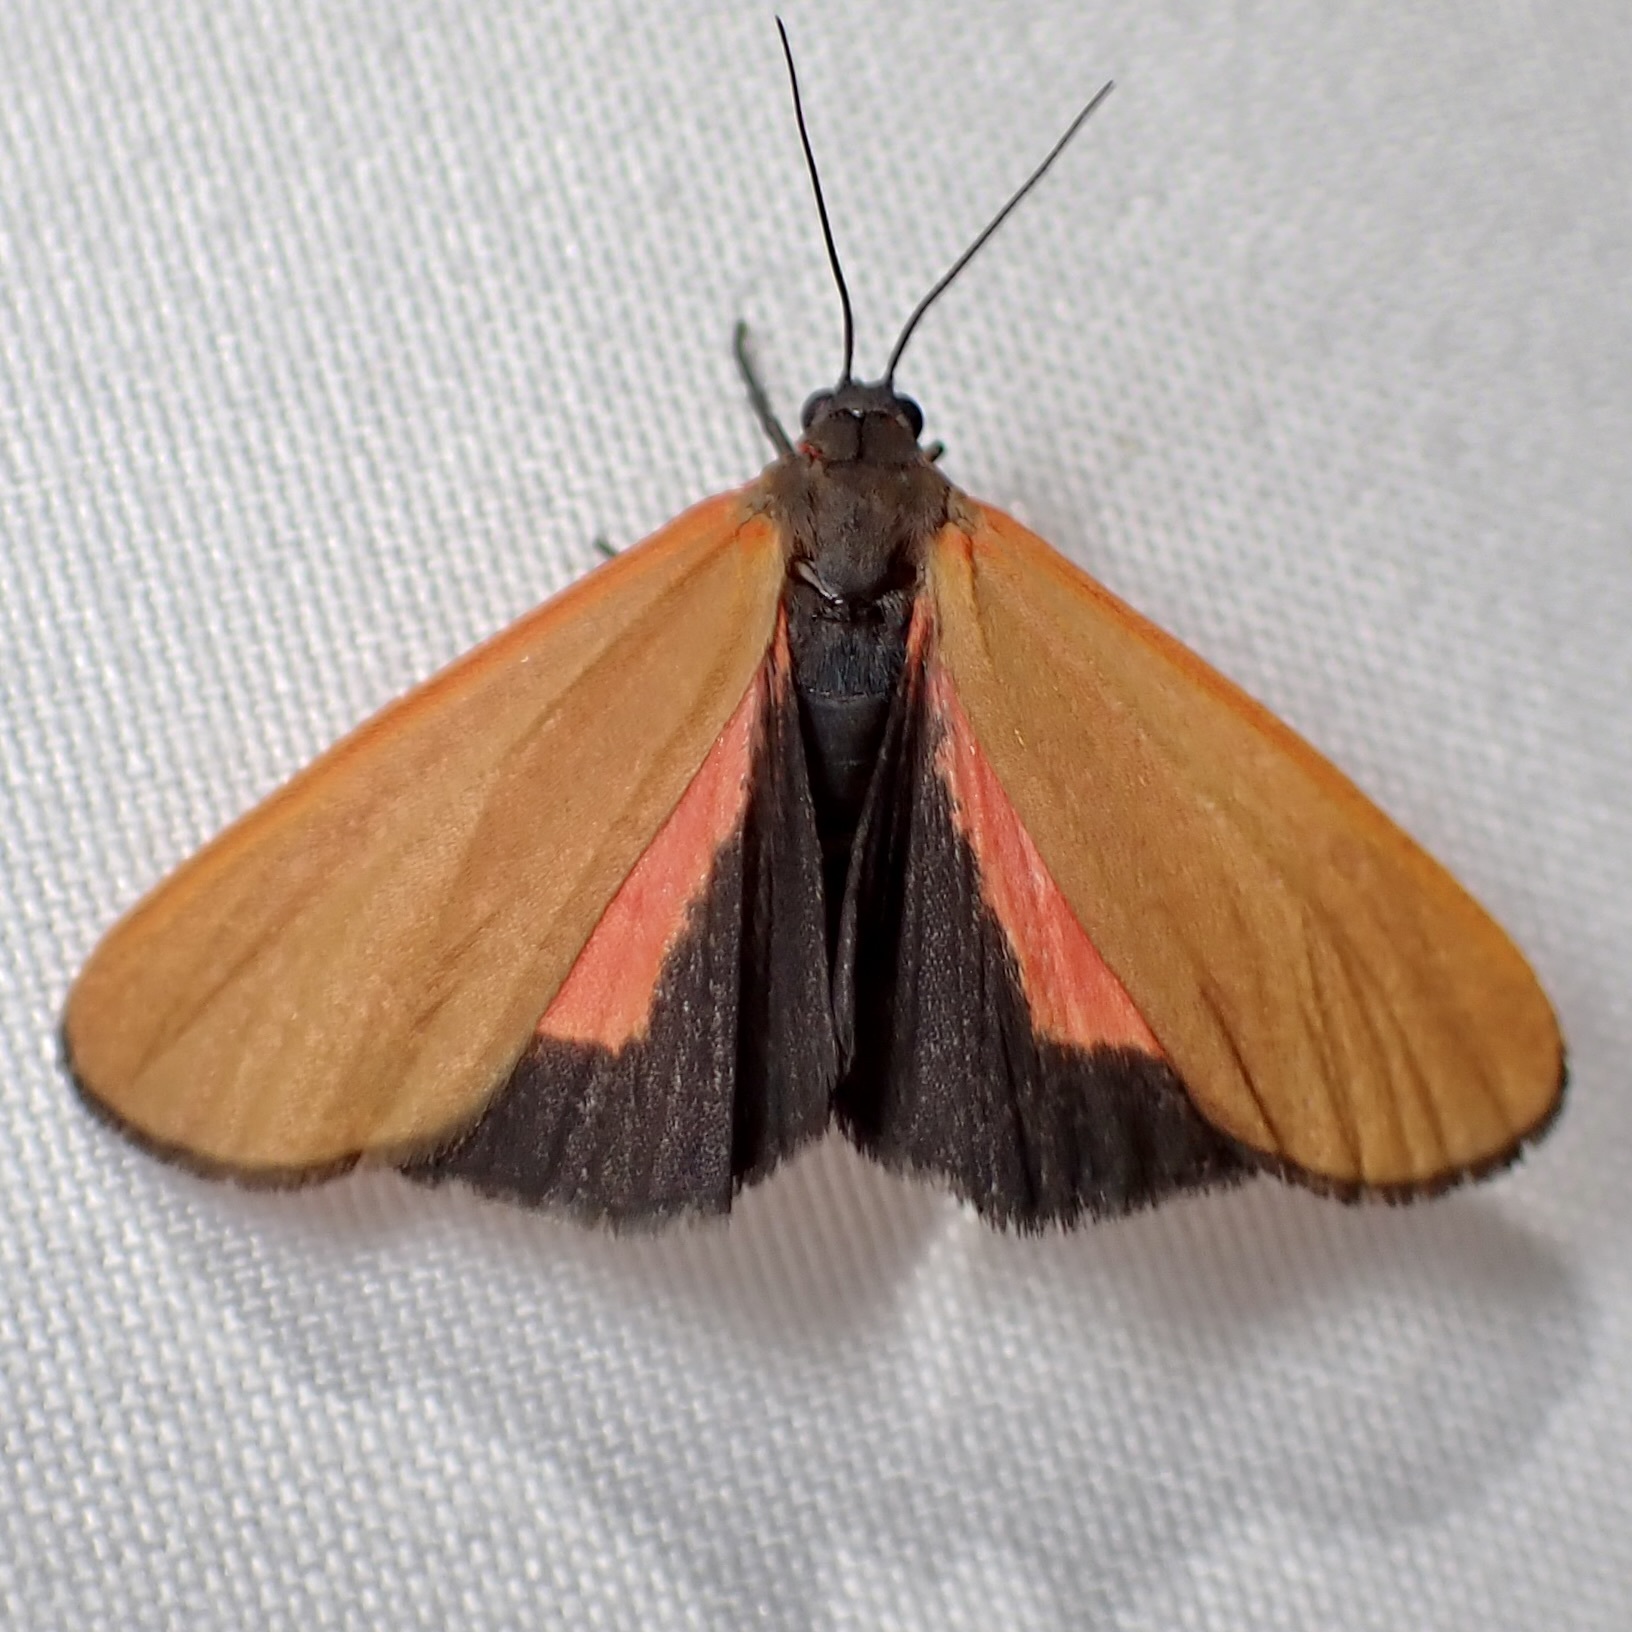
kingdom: Animalia
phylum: Arthropoda
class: Insecta
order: Lepidoptera
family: Erebidae
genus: Virbia
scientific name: Virbia ostenta
